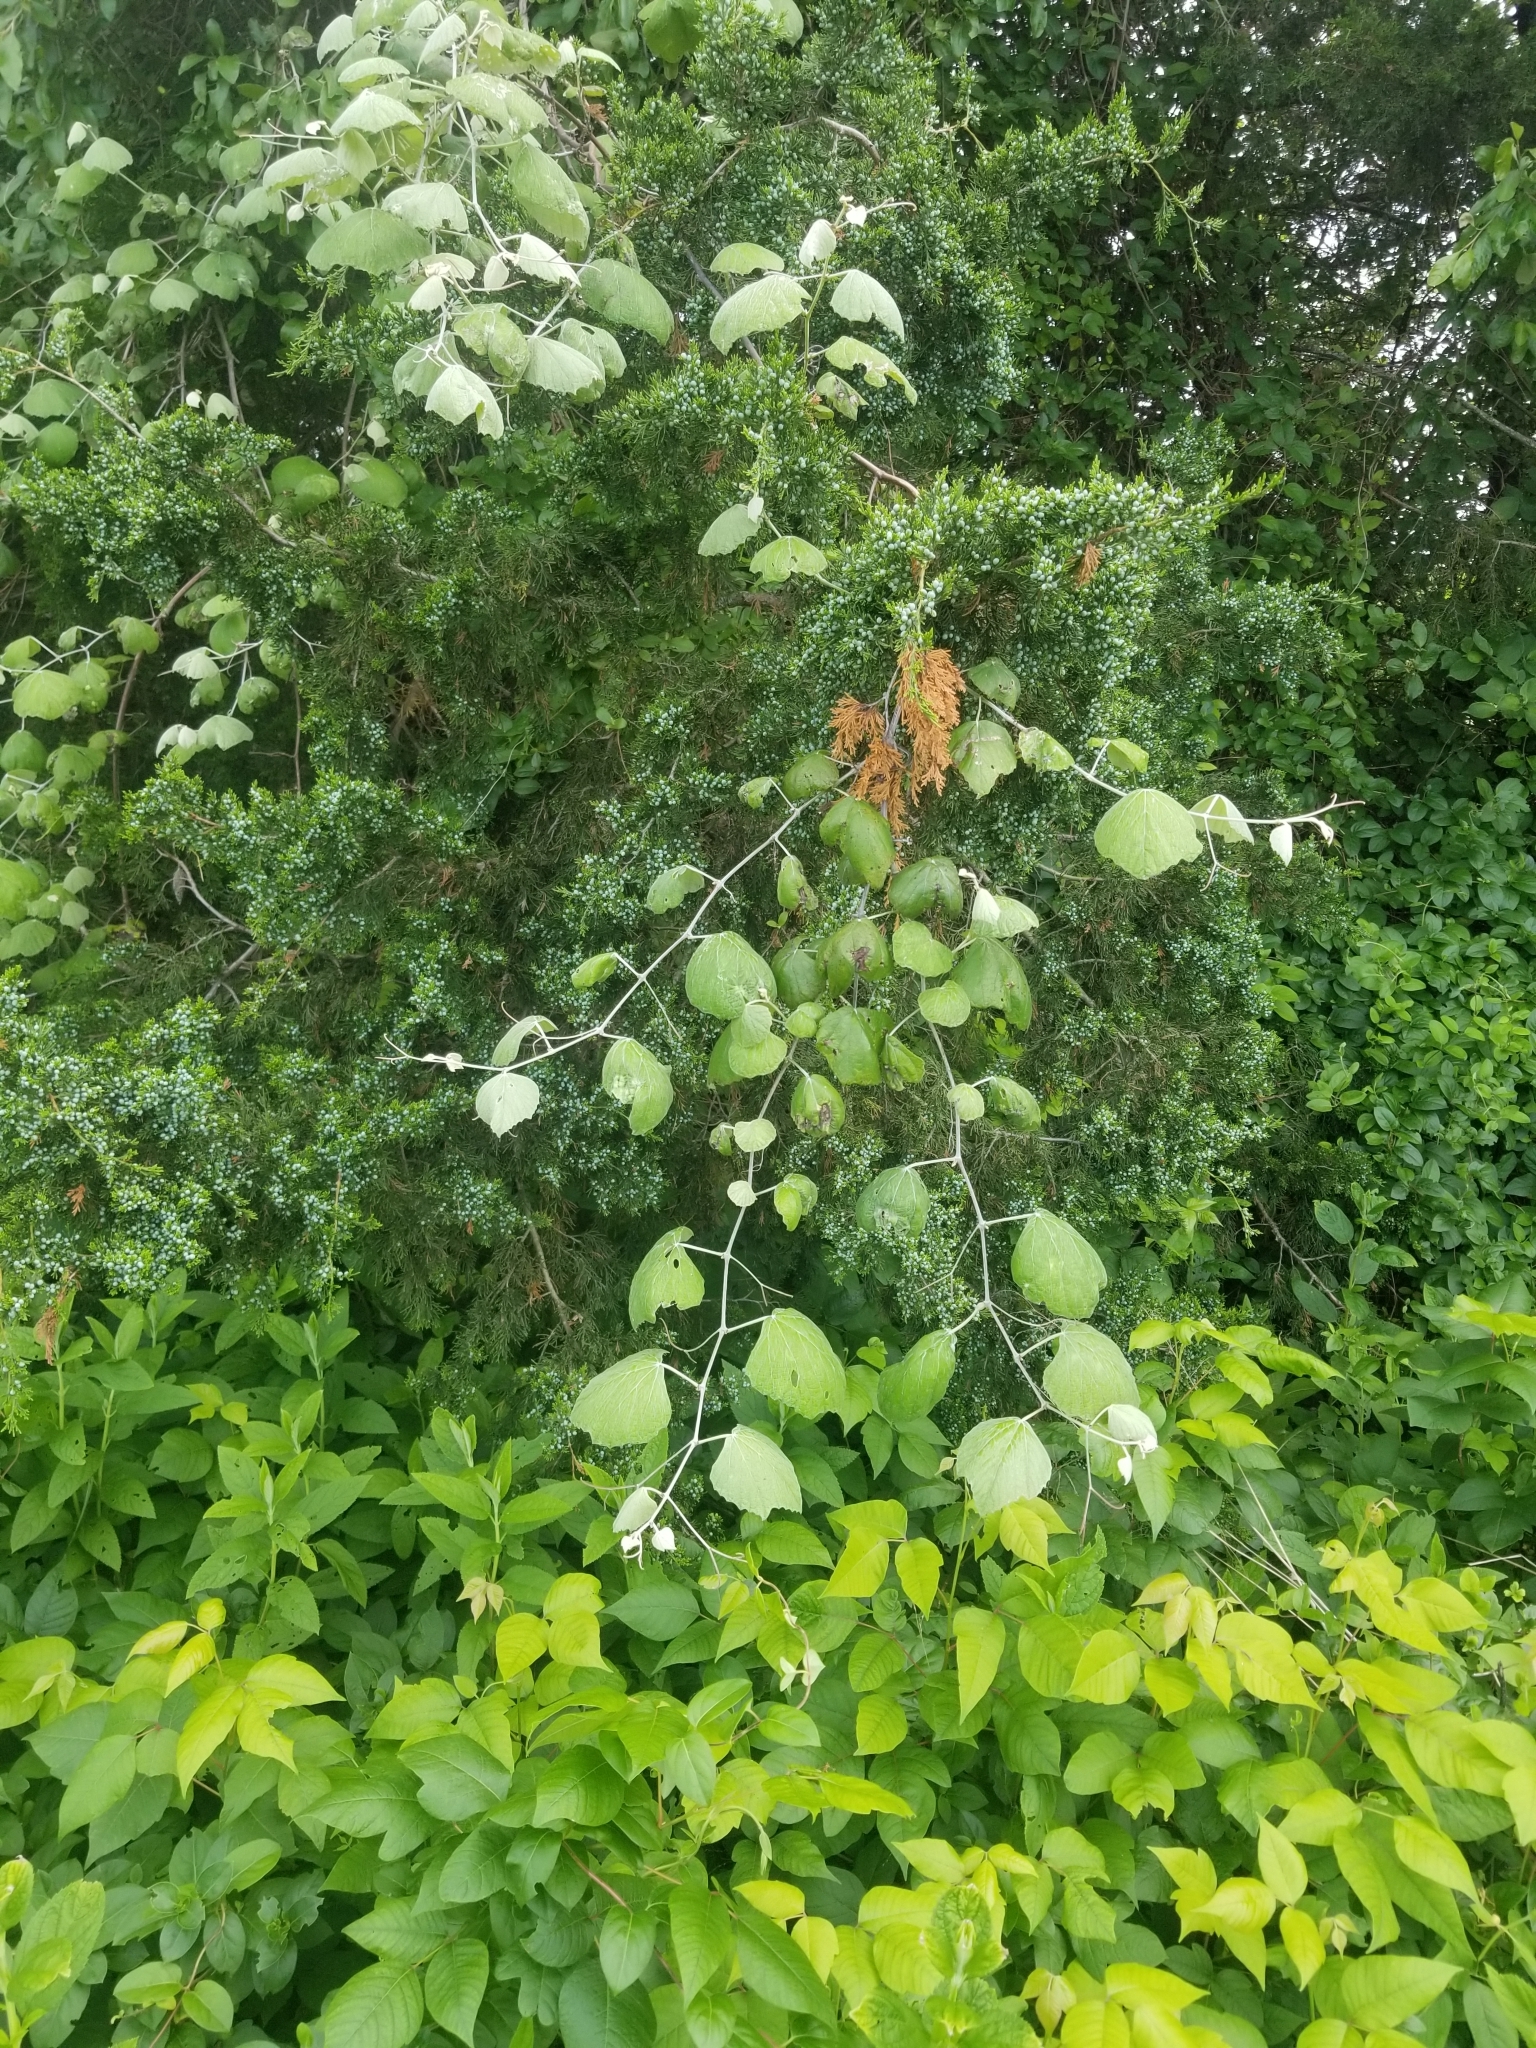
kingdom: Plantae
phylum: Tracheophyta
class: Magnoliopsida
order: Vitales
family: Vitaceae
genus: Vitis
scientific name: Vitis mustangensis
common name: Mustang grape
